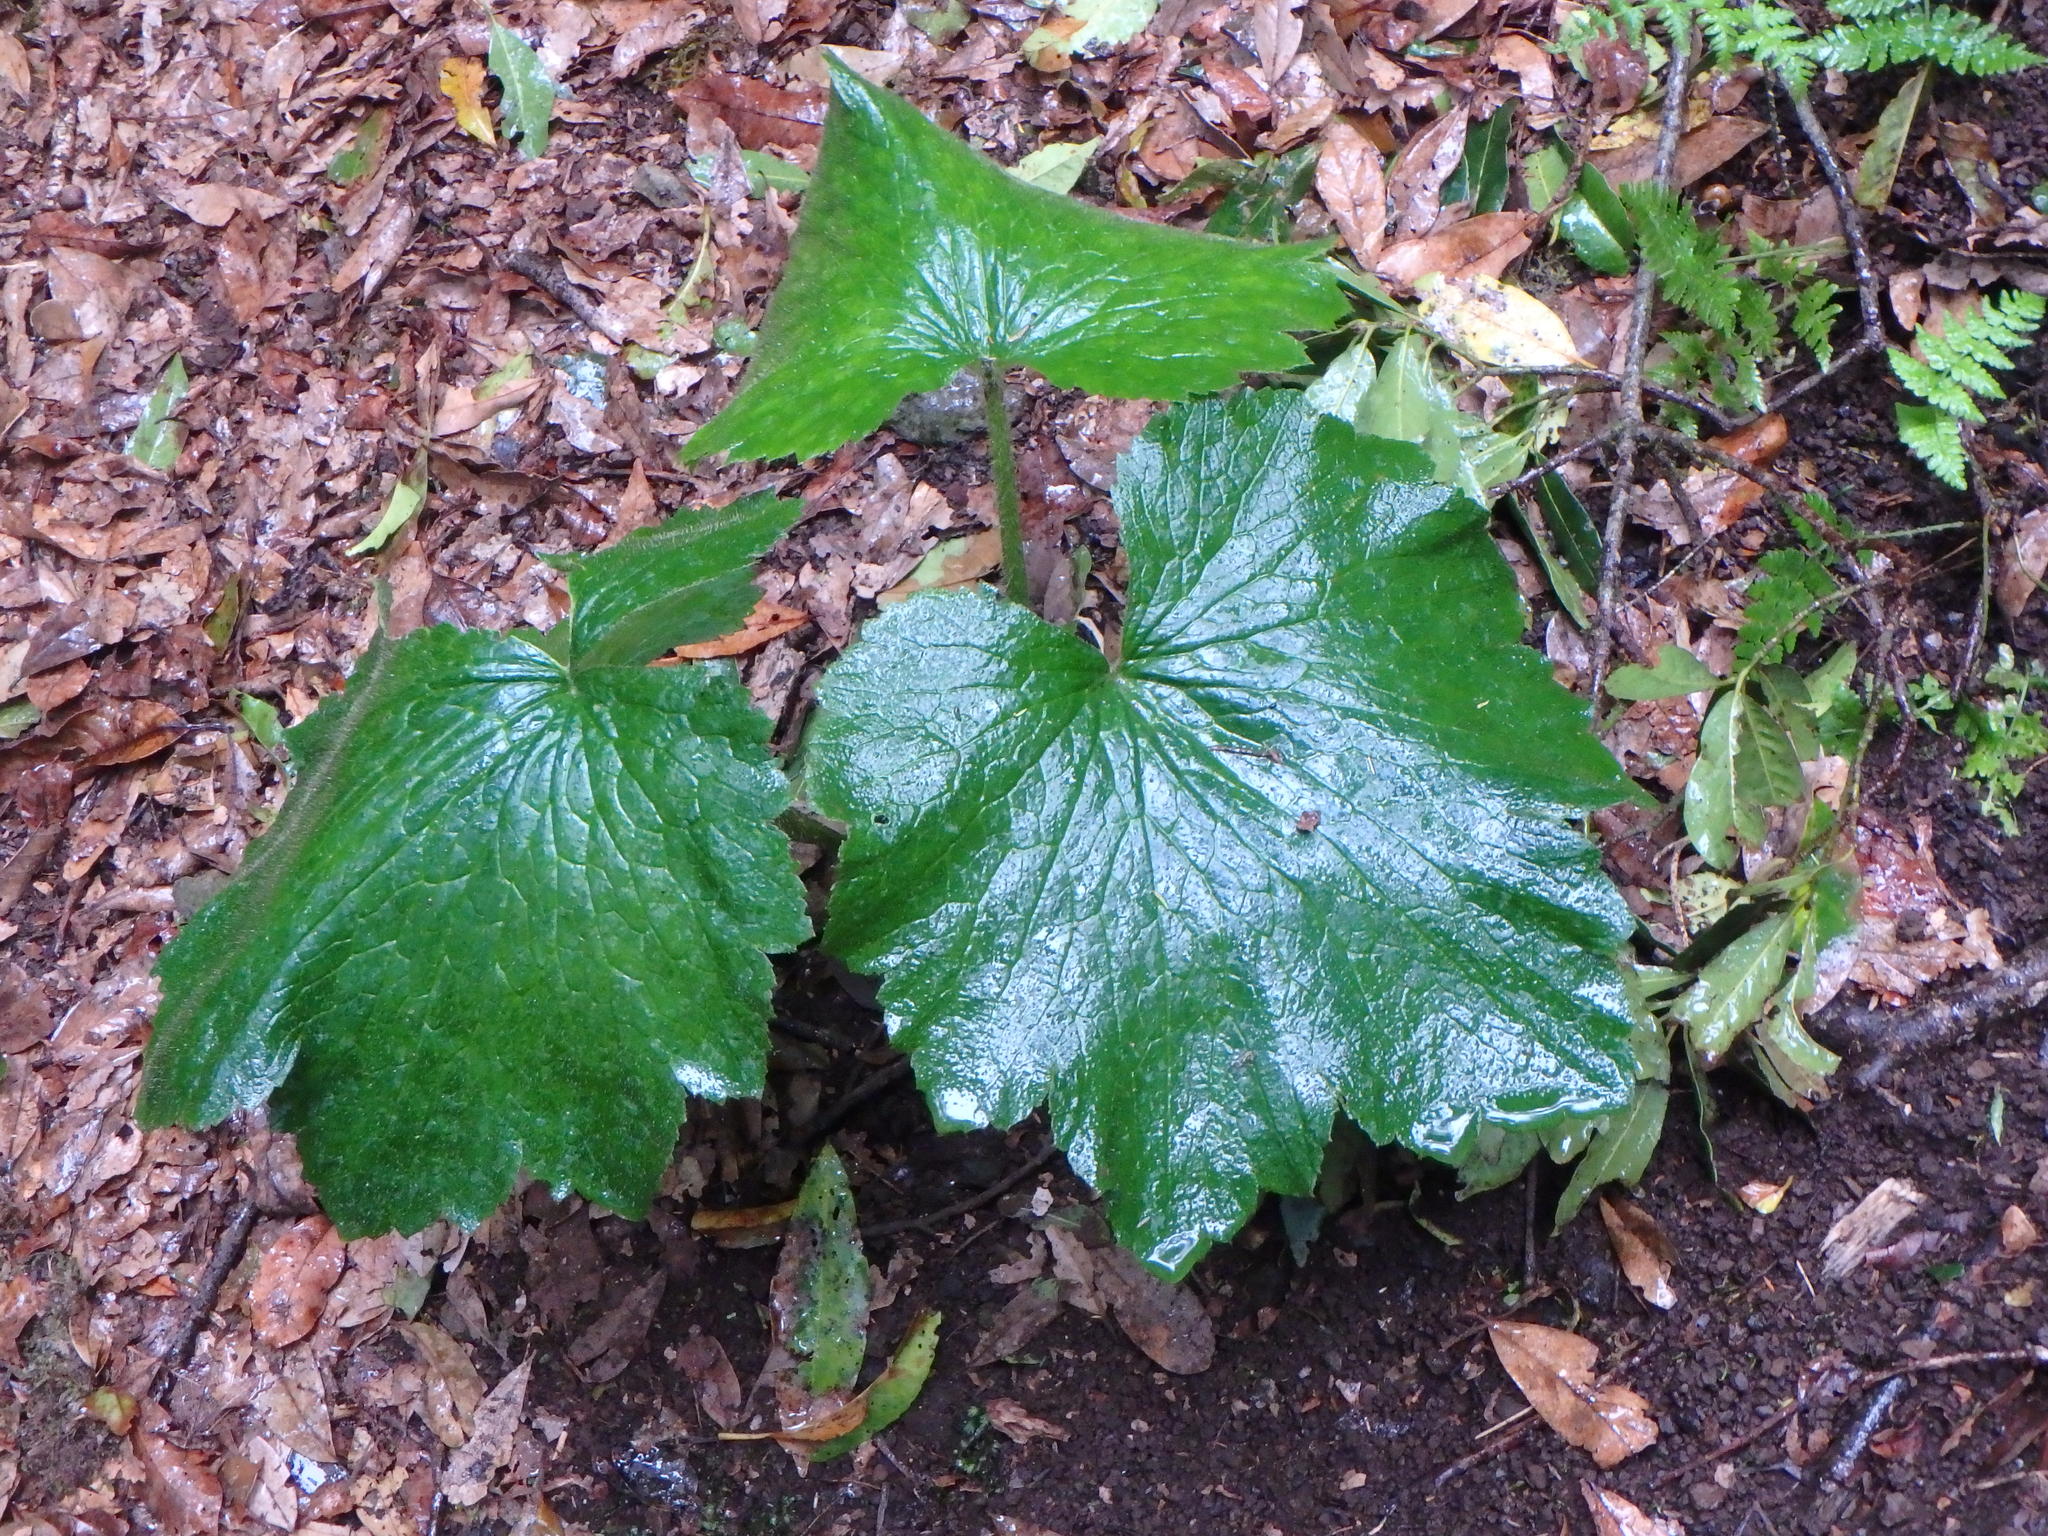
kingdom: Plantae
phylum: Tracheophyta
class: Magnoliopsida
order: Ranunculales
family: Ranunculaceae
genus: Ranunculus
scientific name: Ranunculus cortusifolius
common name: Azores buttercup
